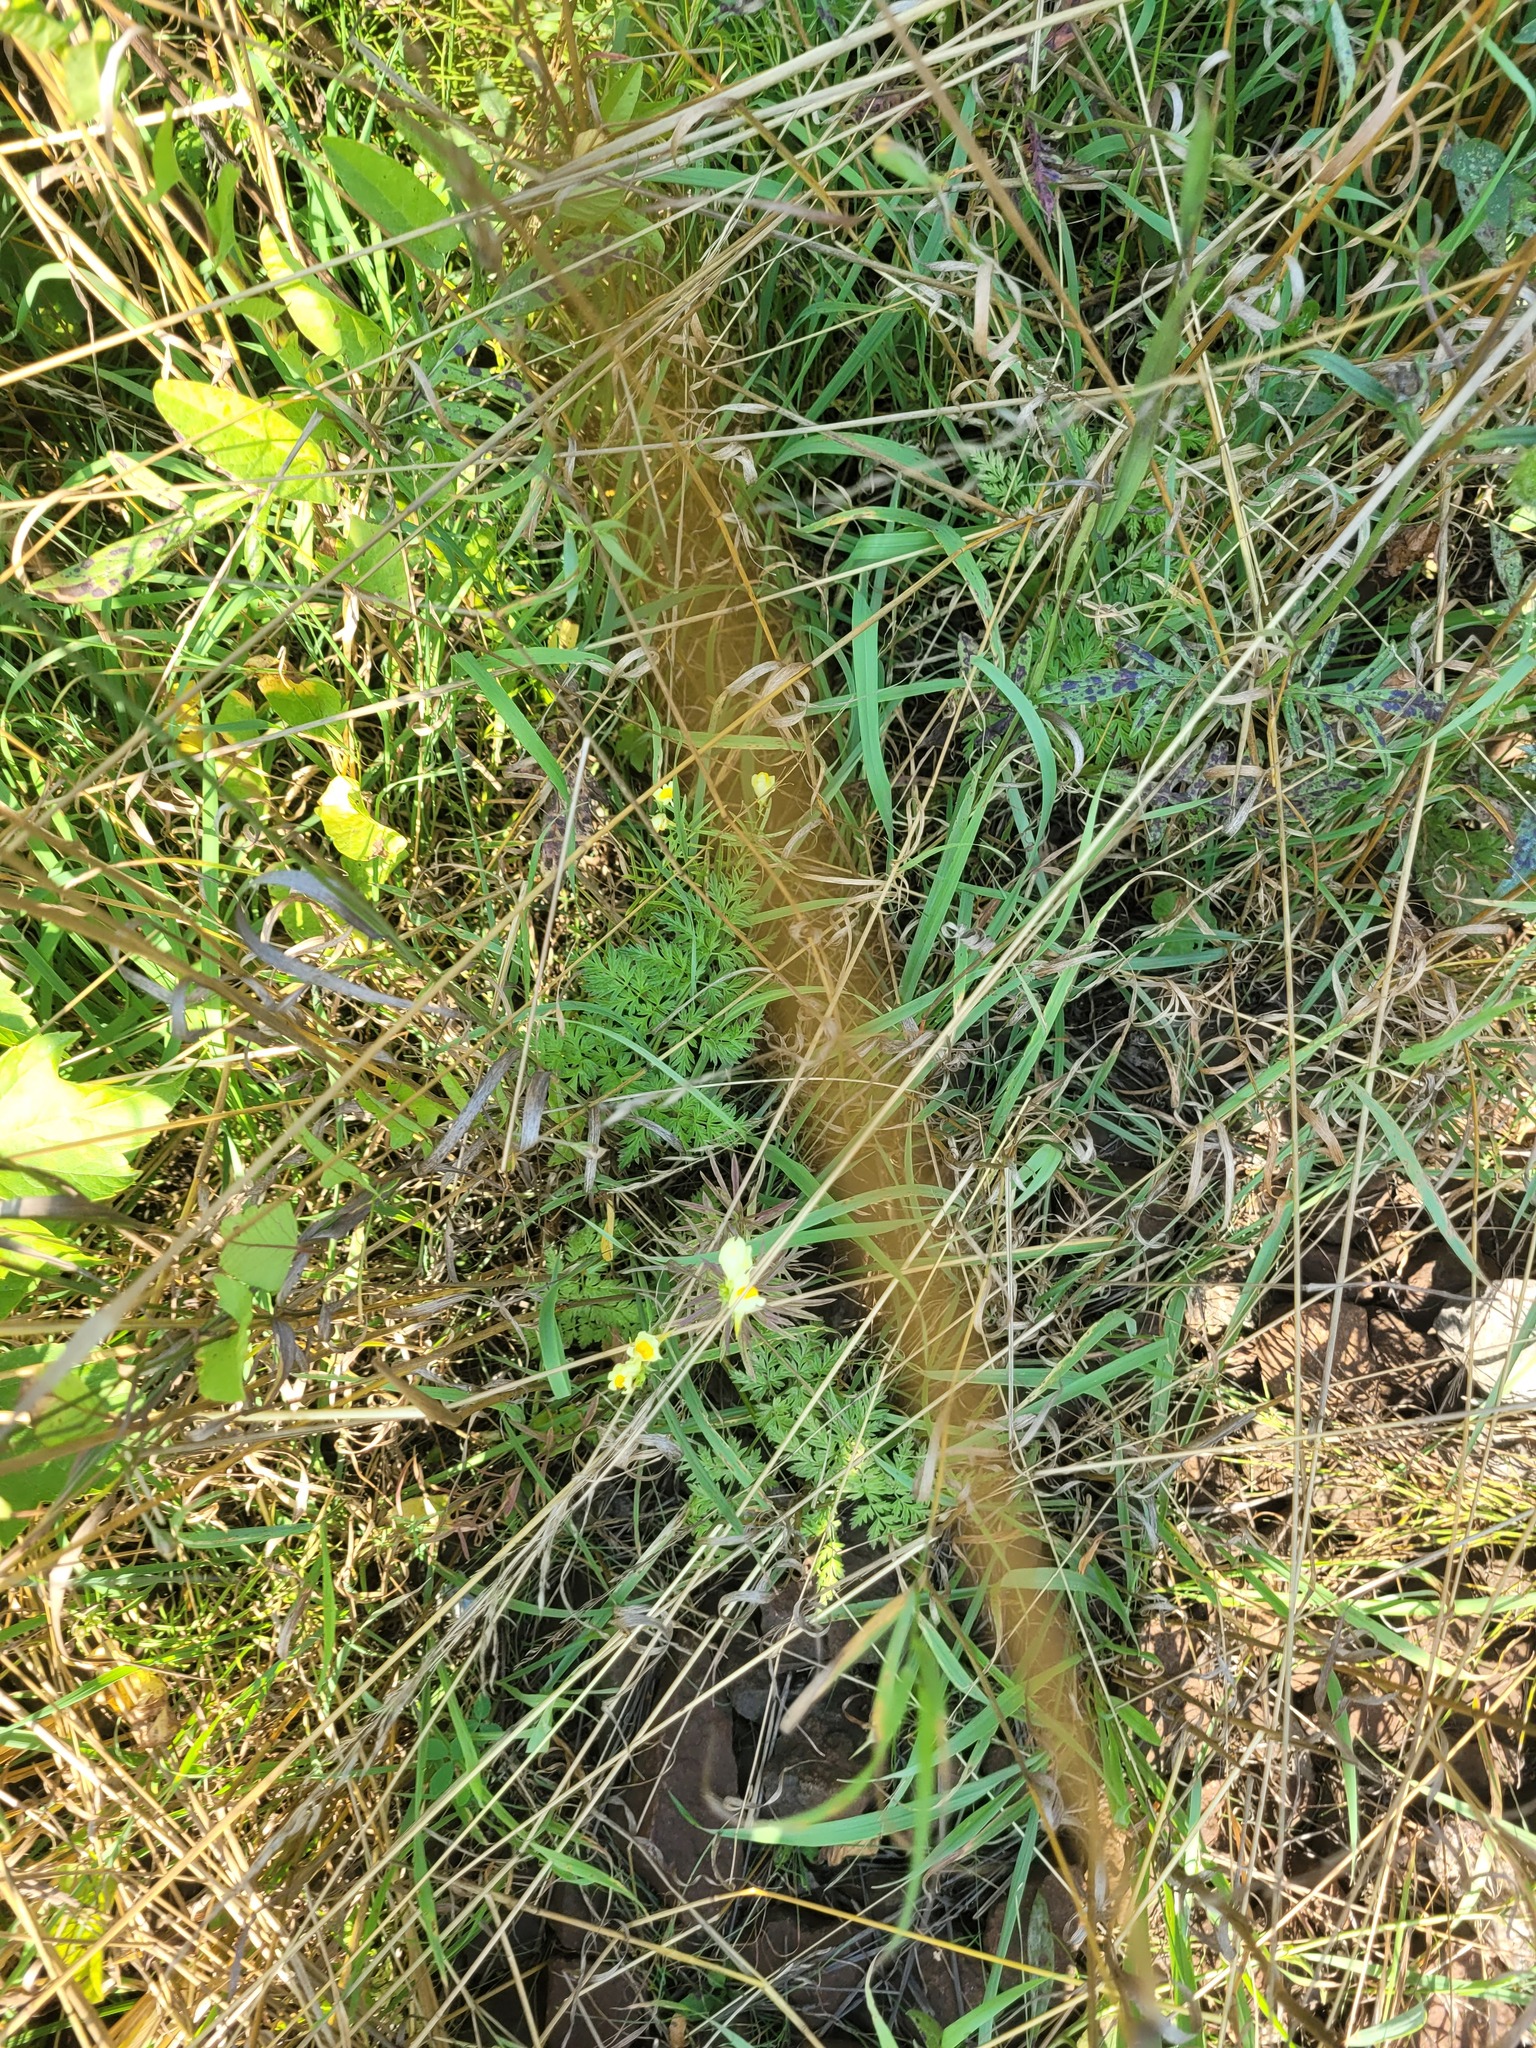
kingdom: Plantae
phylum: Tracheophyta
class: Magnoliopsida
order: Apiales
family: Apiaceae
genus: Anthriscus
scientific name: Anthriscus sylvestris
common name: Cow parsley
